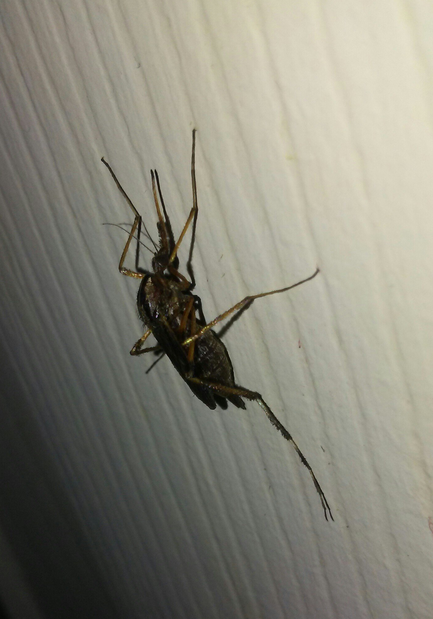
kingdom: Animalia
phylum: Arthropoda
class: Insecta
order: Diptera
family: Culicidae
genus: Psorophora
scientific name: Psorophora ciliata
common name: Gallinipper
